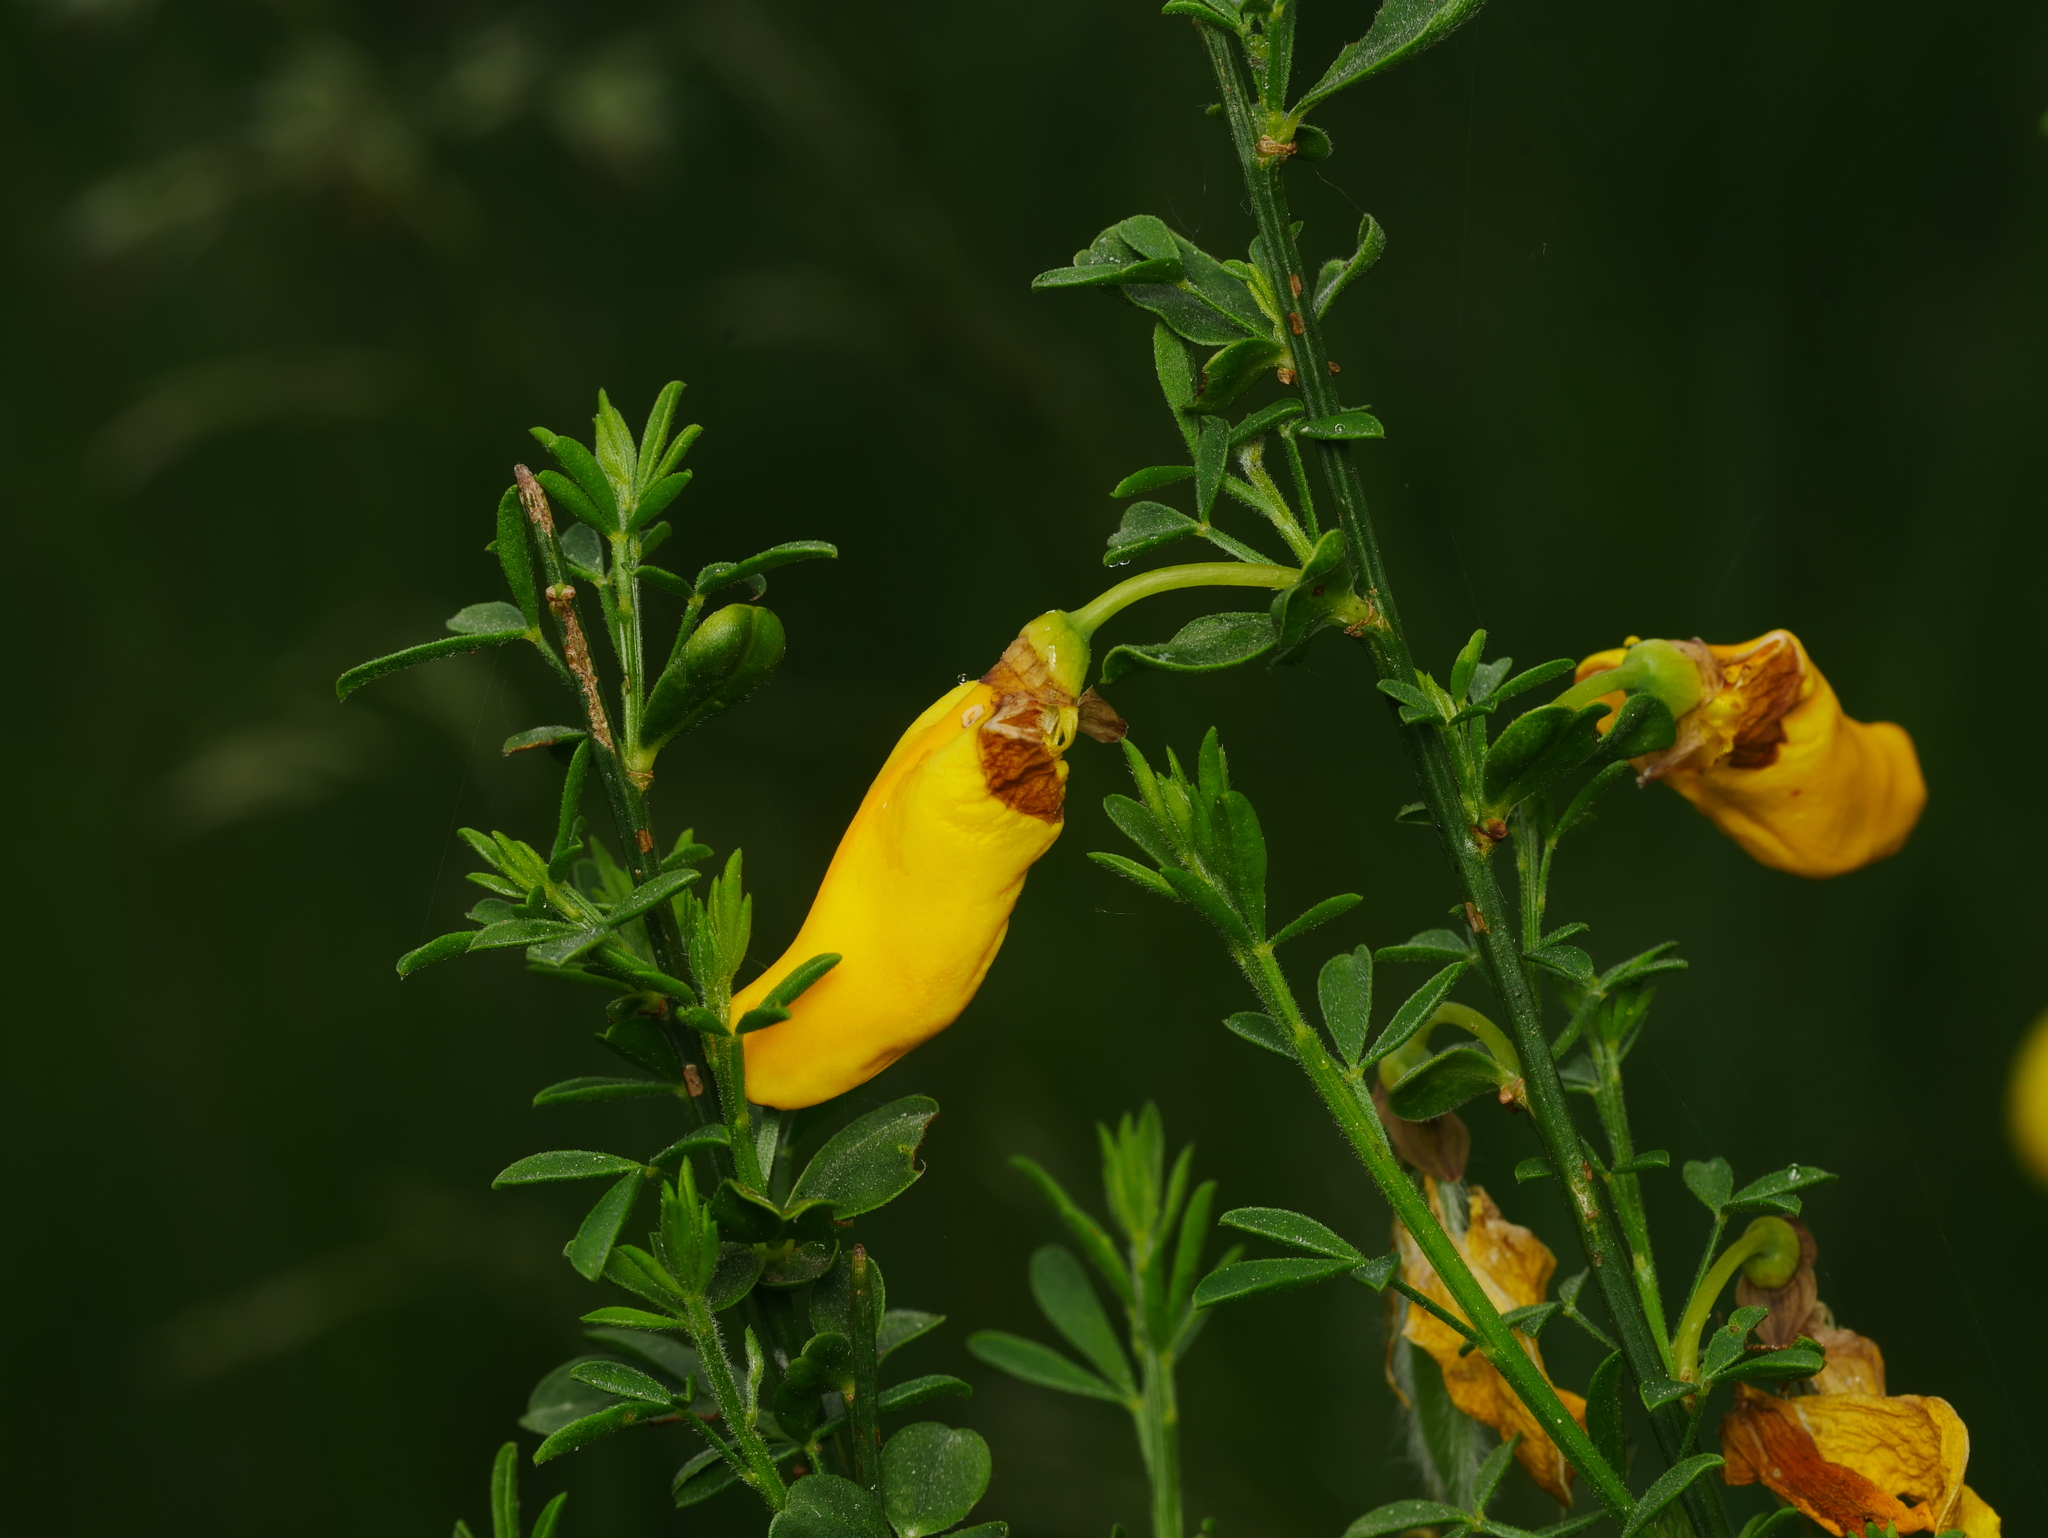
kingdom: Plantae
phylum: Tracheophyta
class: Magnoliopsida
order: Fabales
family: Fabaceae
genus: Cytisus
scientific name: Cytisus scoparius
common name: Scotch broom
